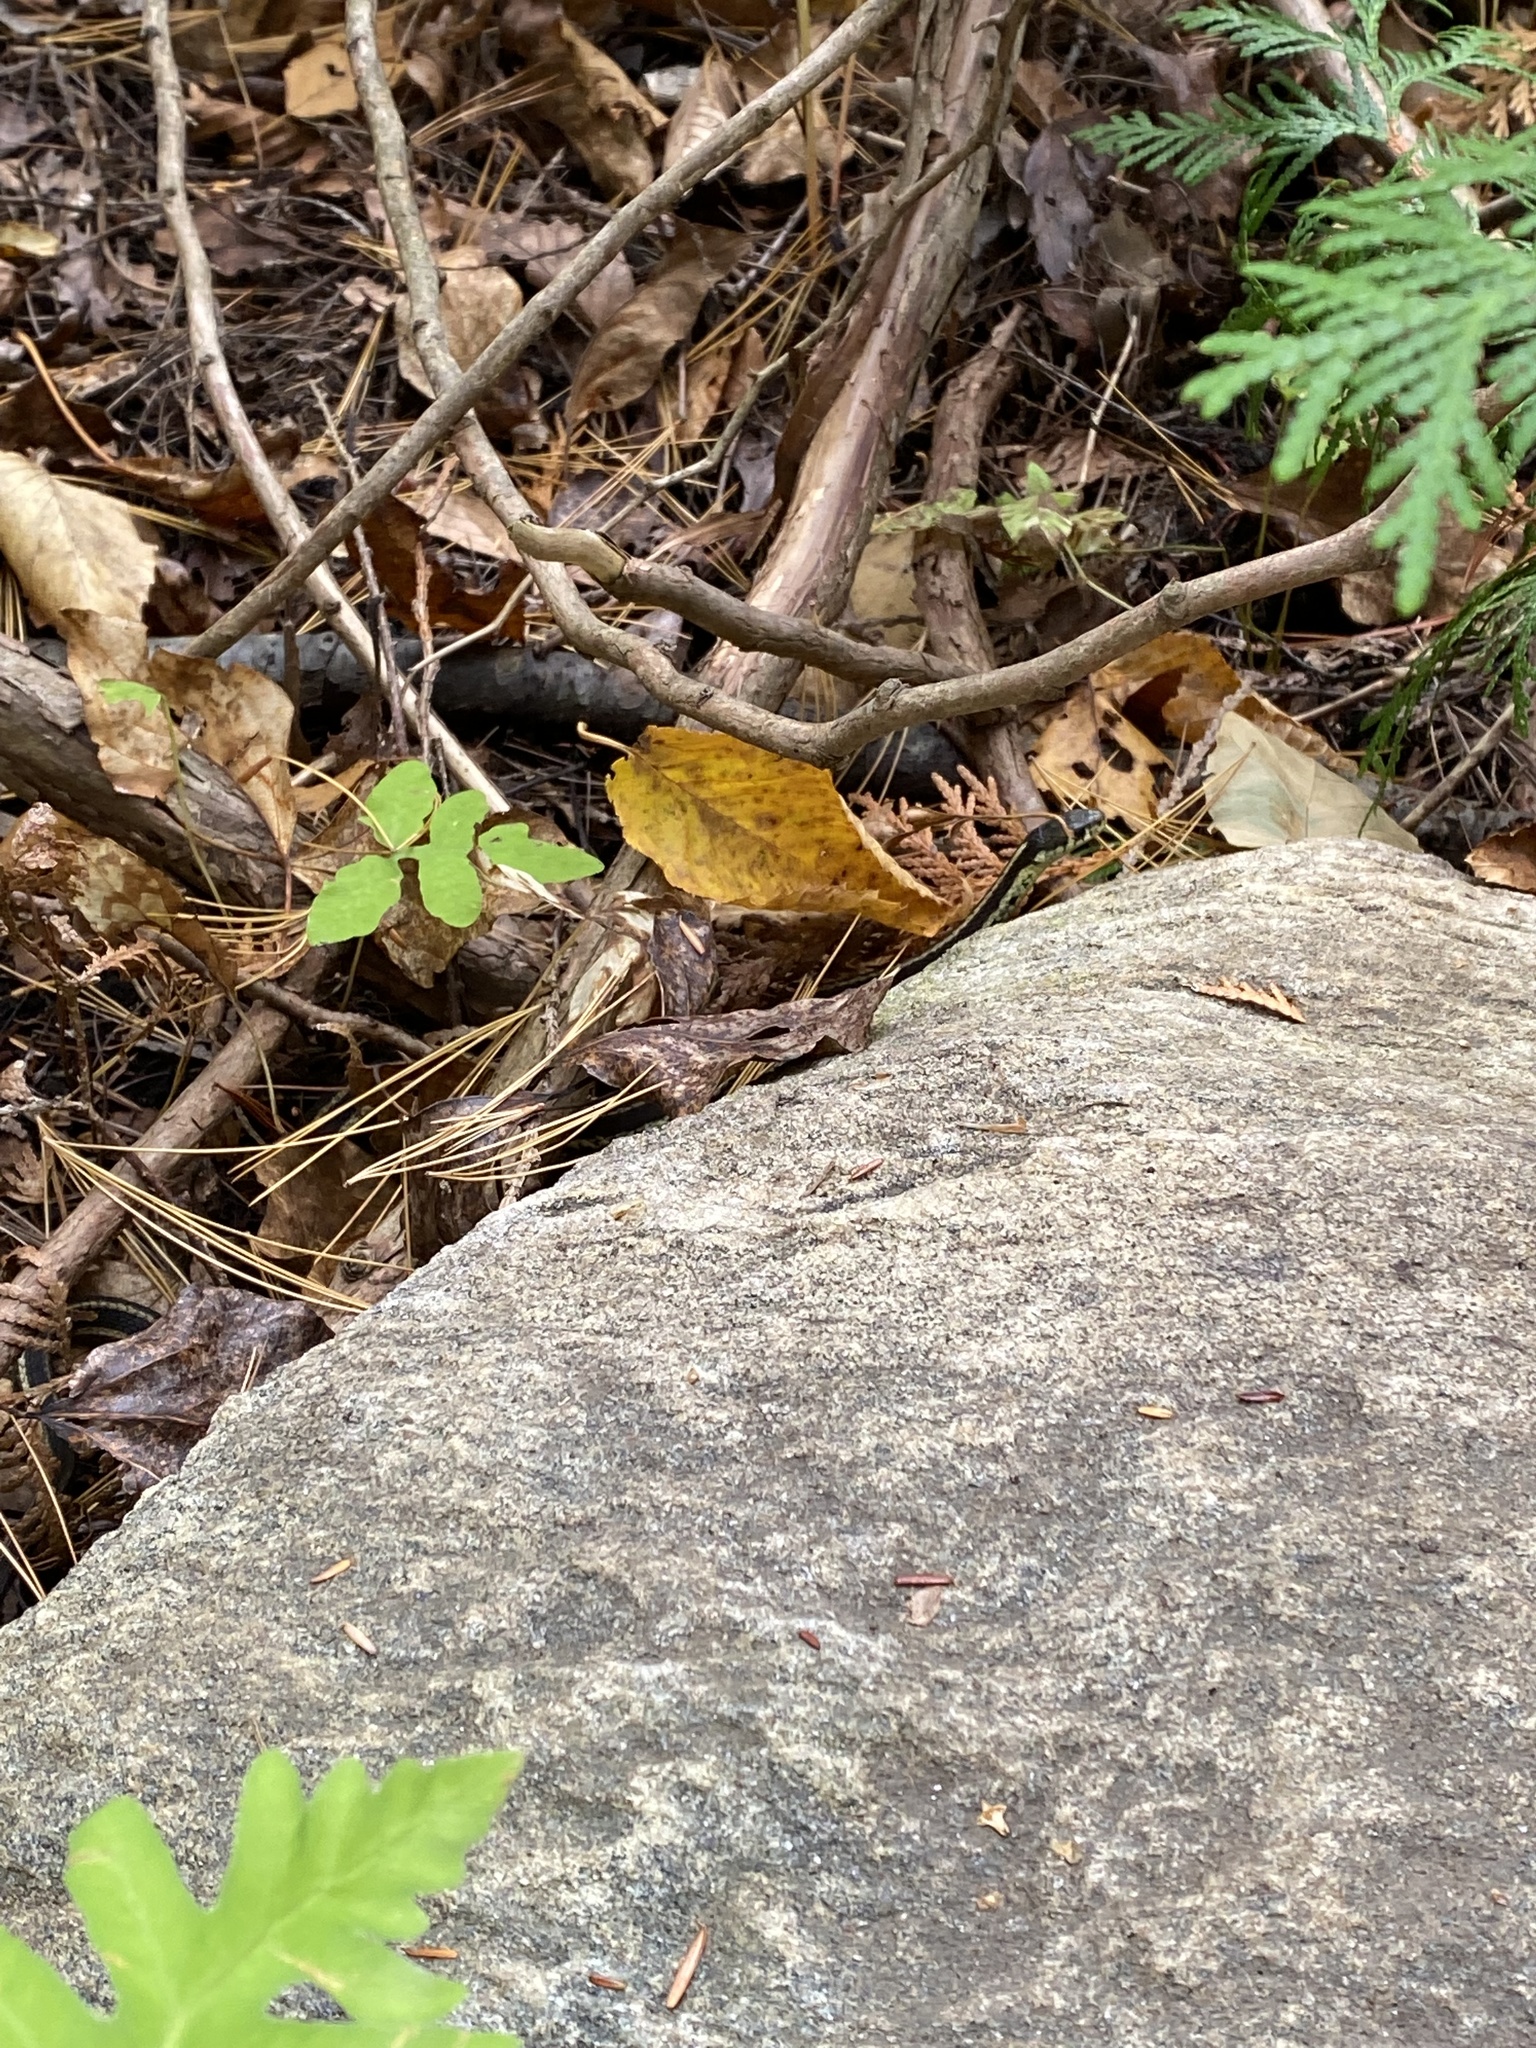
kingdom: Animalia
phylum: Chordata
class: Squamata
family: Colubridae
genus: Thamnophis
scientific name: Thamnophis sirtalis
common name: Common garter snake
